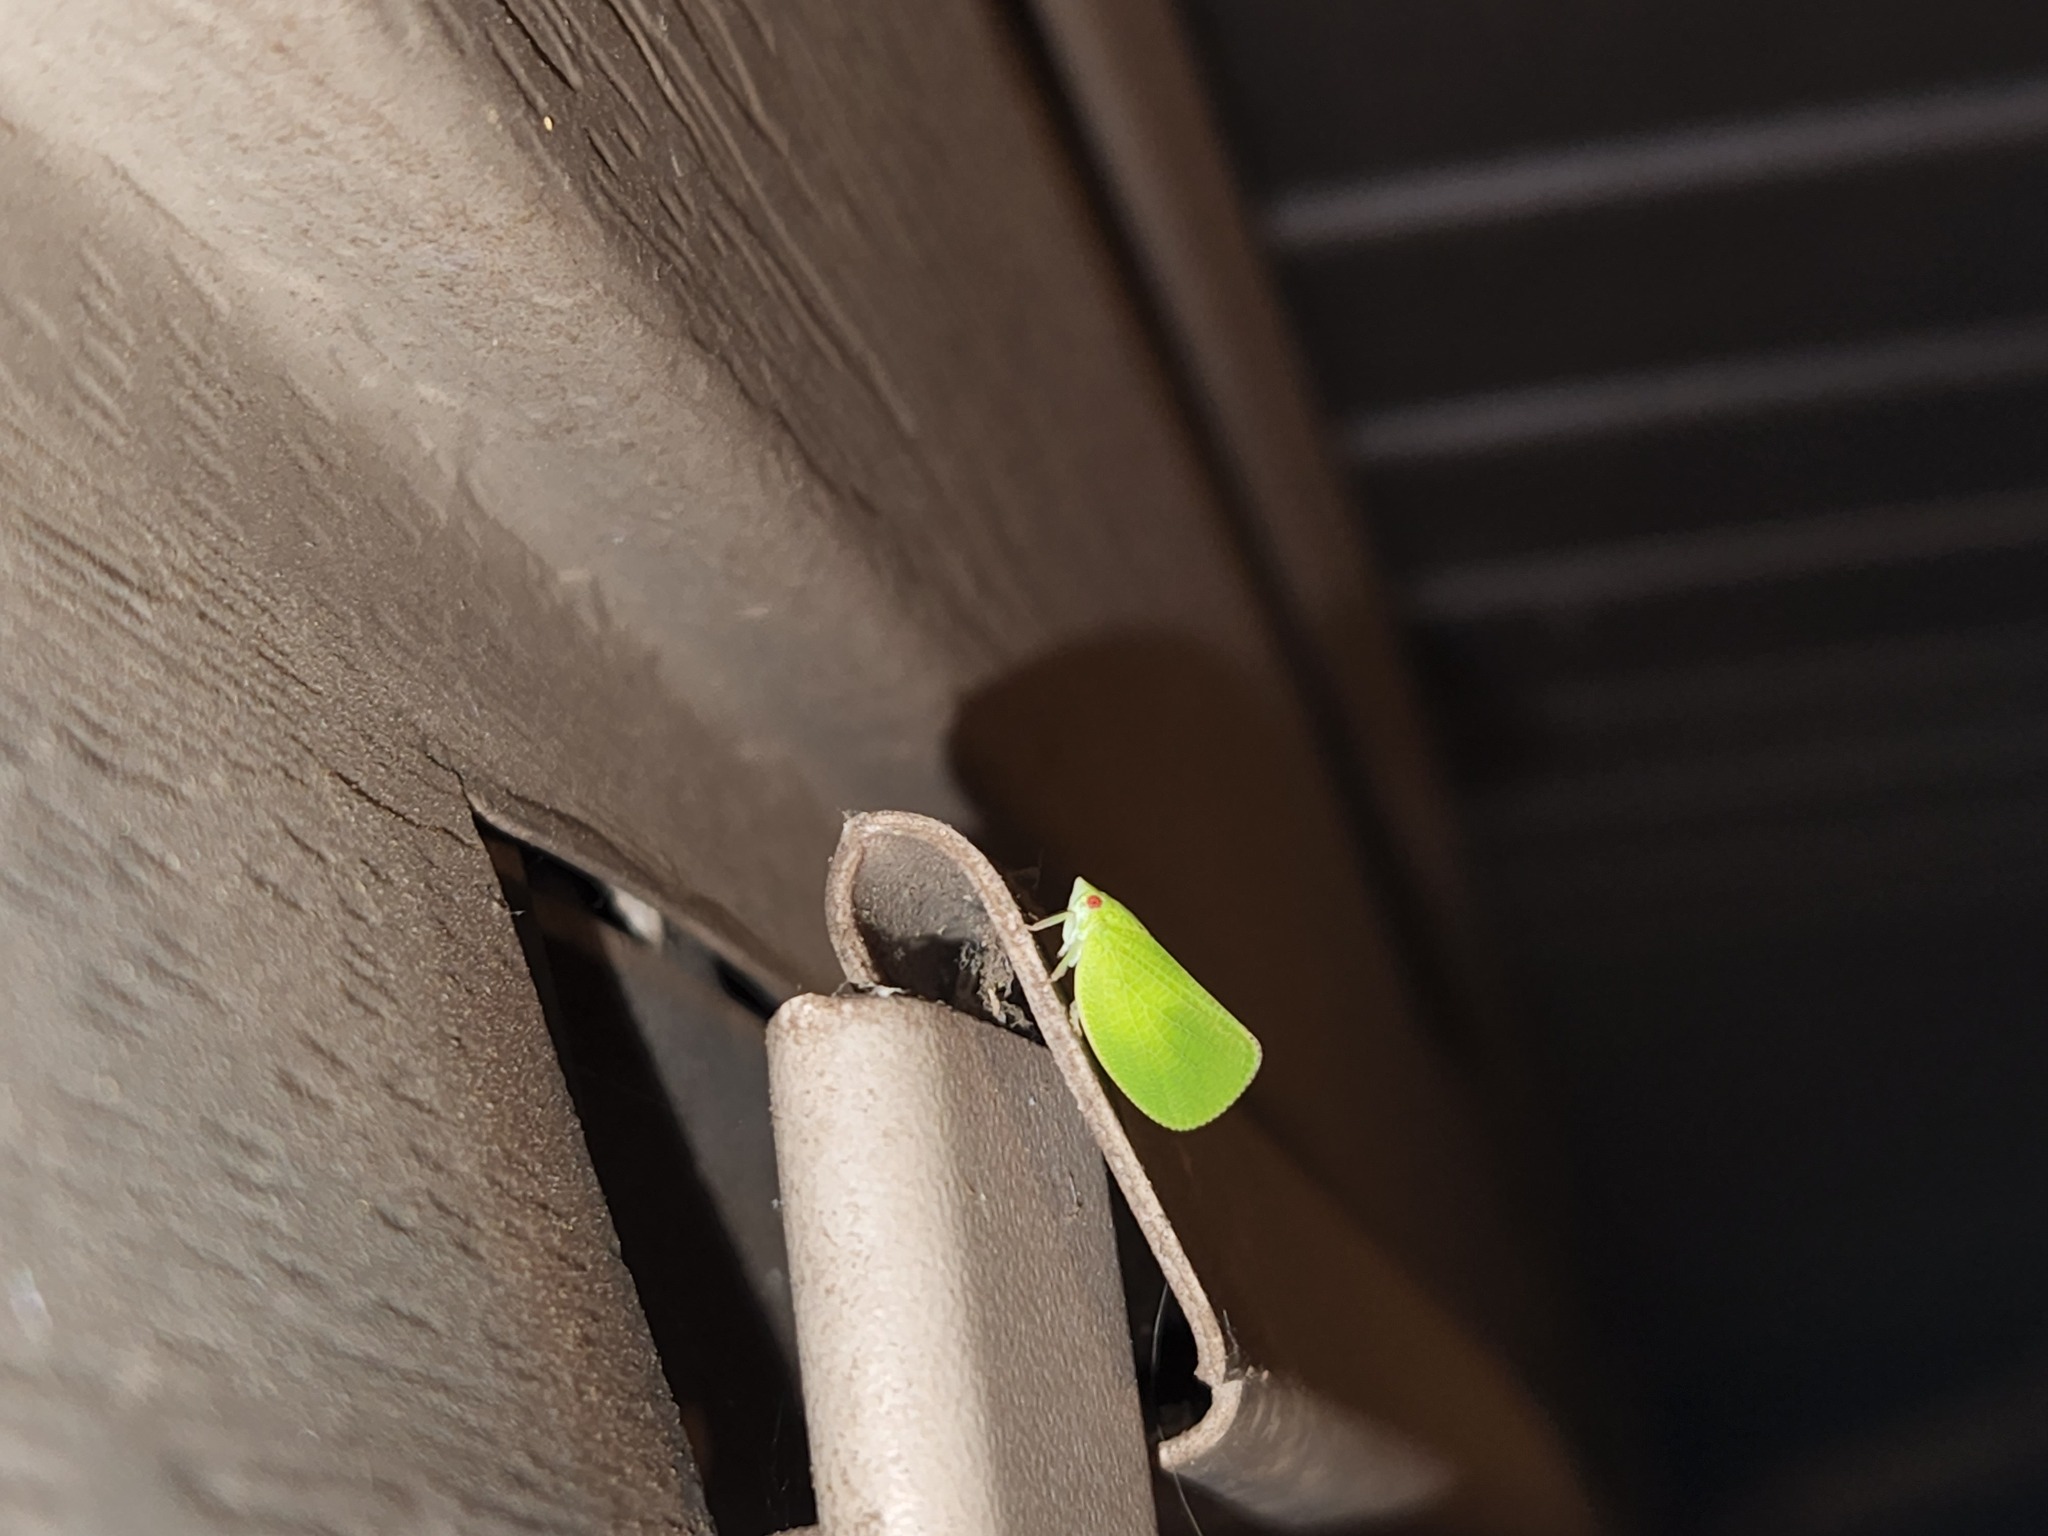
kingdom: Animalia
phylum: Arthropoda
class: Insecta
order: Hemiptera
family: Acanaloniidae
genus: Acanalonia
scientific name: Acanalonia conica
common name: Green cone-headed planthopper
